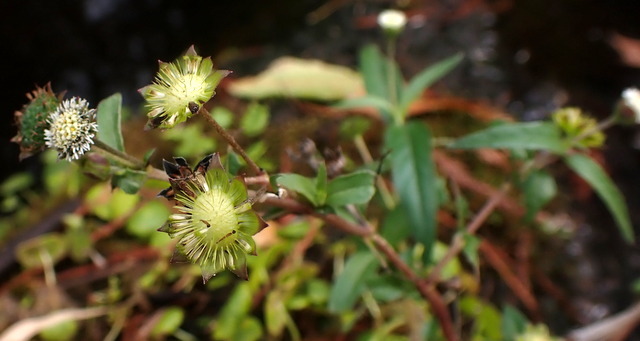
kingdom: Plantae
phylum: Tracheophyta
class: Magnoliopsida
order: Asterales
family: Asteraceae
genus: Eclipta
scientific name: Eclipta prostrata
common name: False daisy
